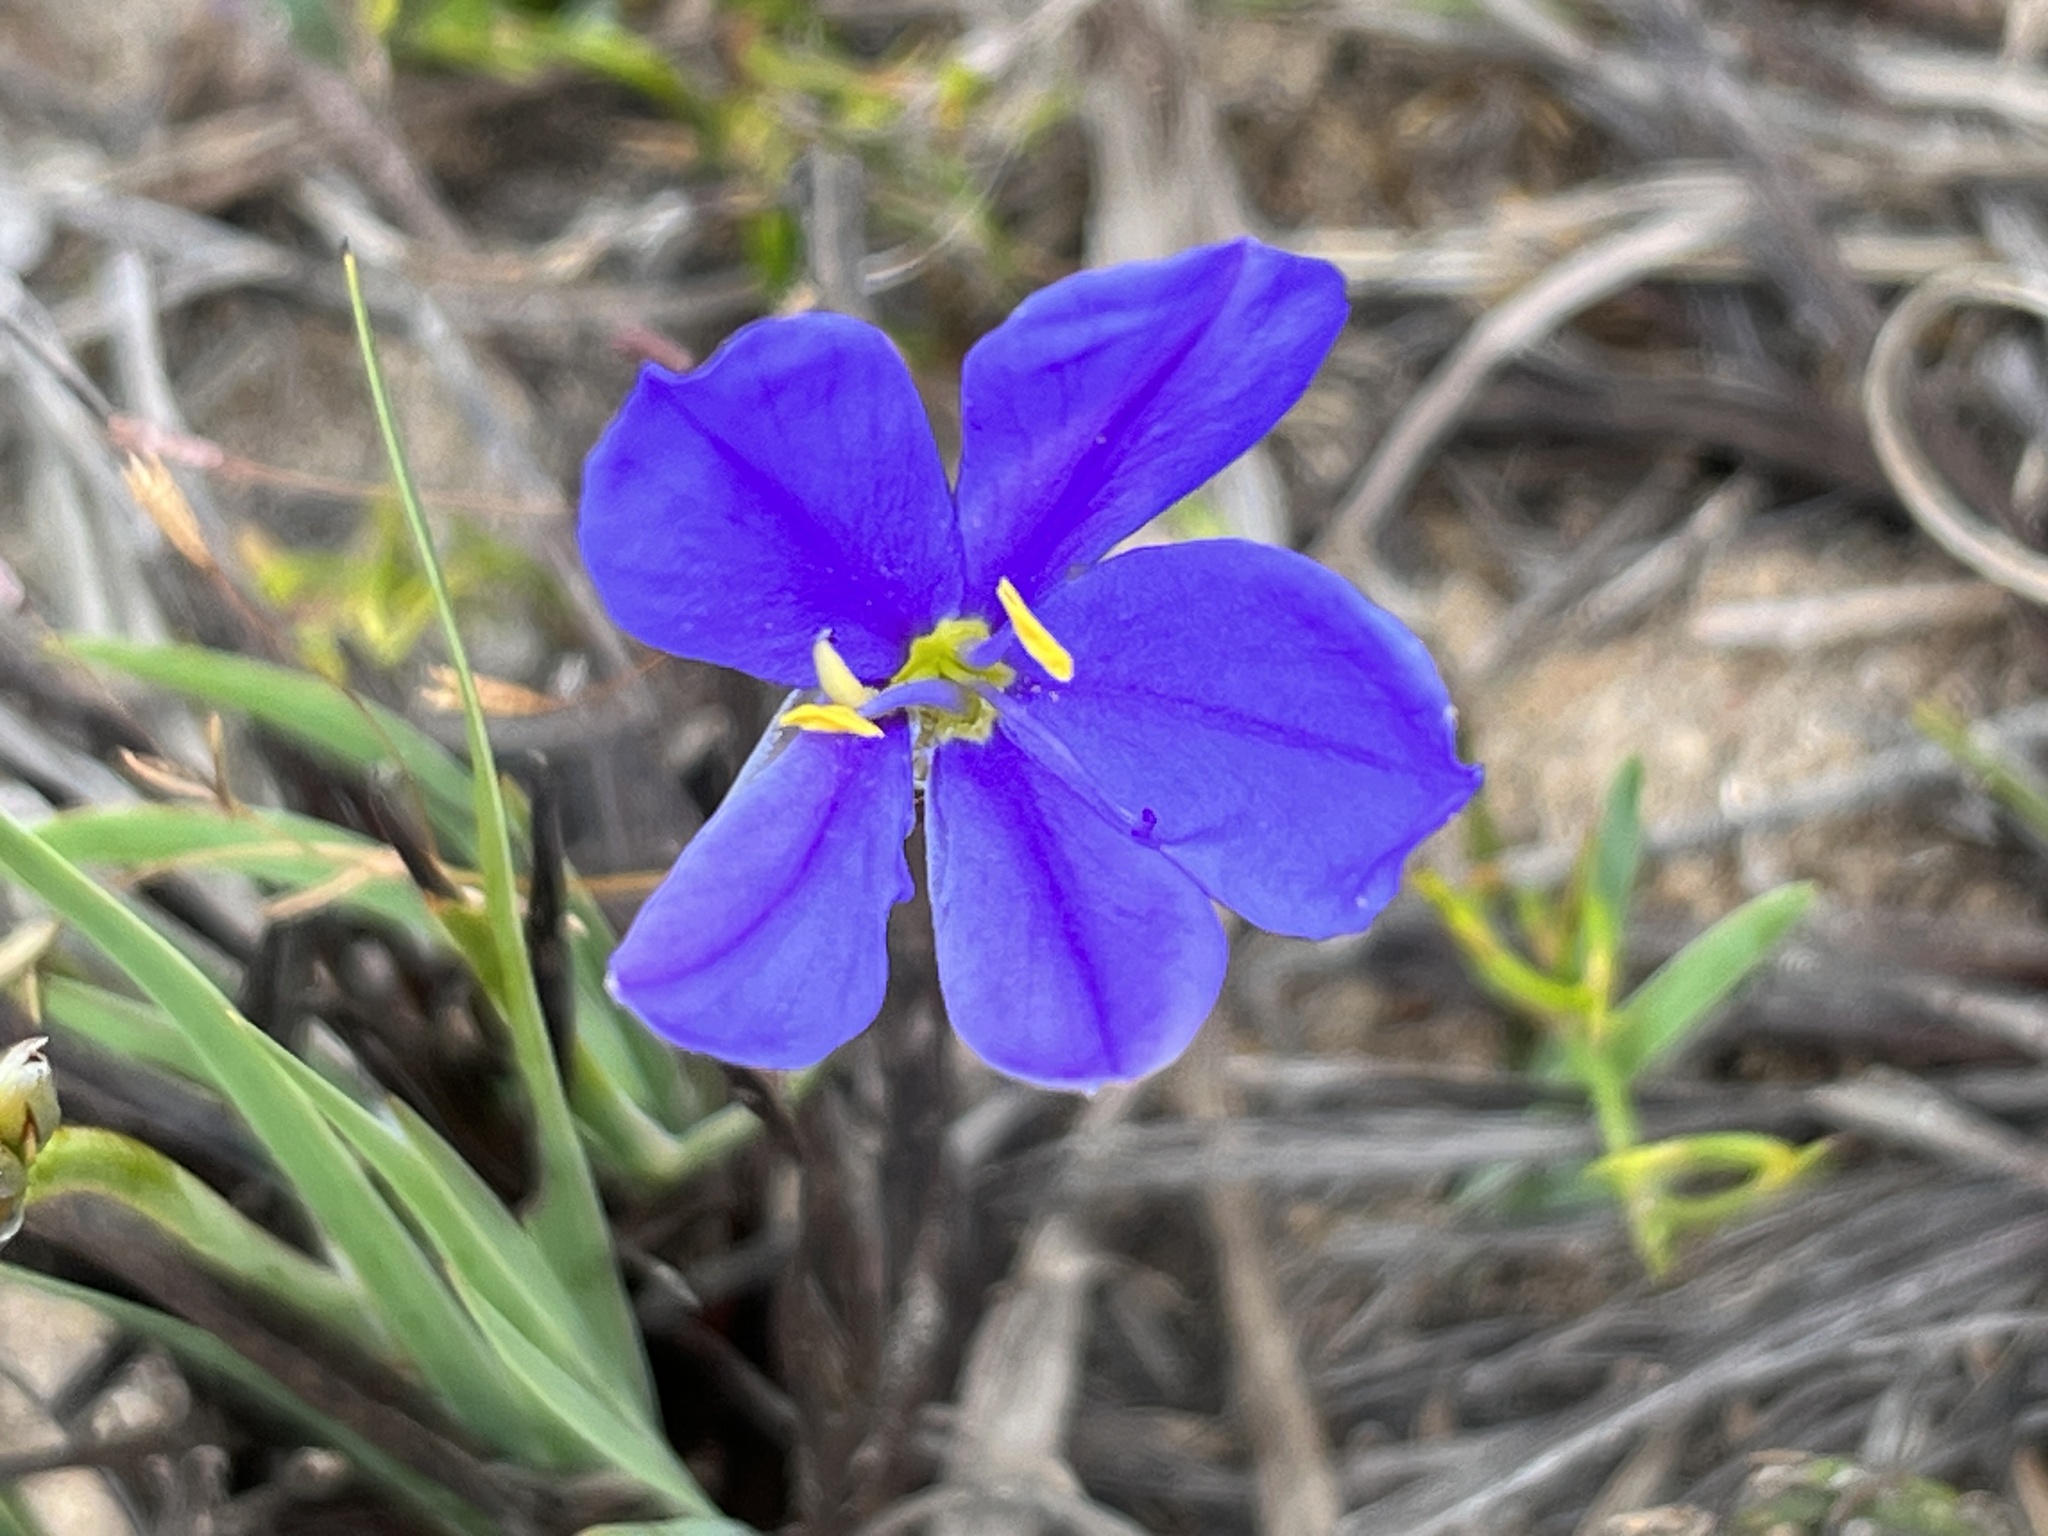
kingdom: Plantae
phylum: Tracheophyta
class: Liliopsida
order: Asparagales
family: Iridaceae
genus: Aristea
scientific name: Aristea glauca
